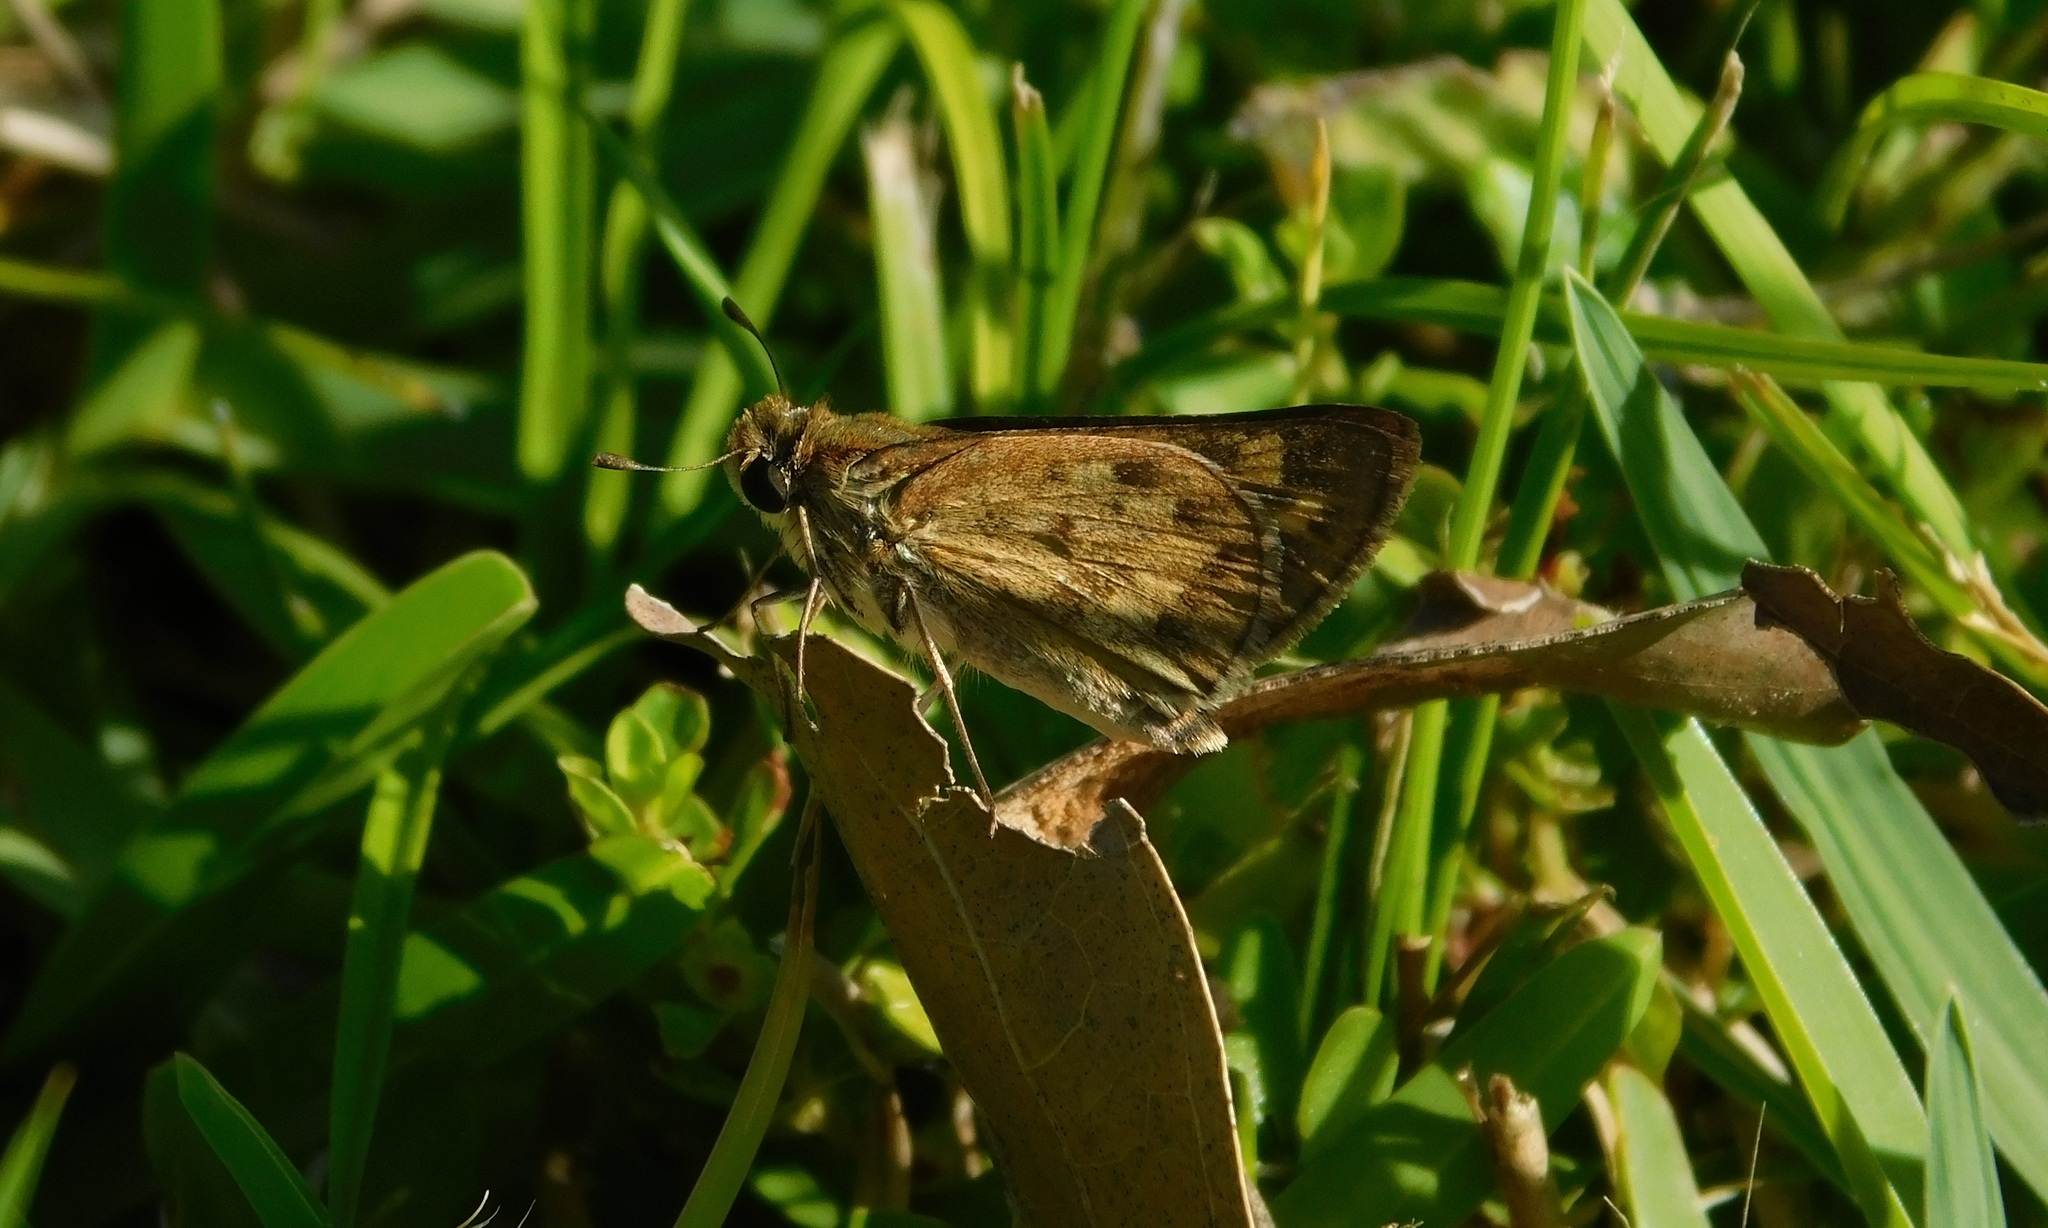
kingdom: Animalia
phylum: Arthropoda
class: Insecta
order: Lepidoptera
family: Hesperiidae
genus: Hylephila
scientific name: Hylephila phyleus
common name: Fiery skipper
